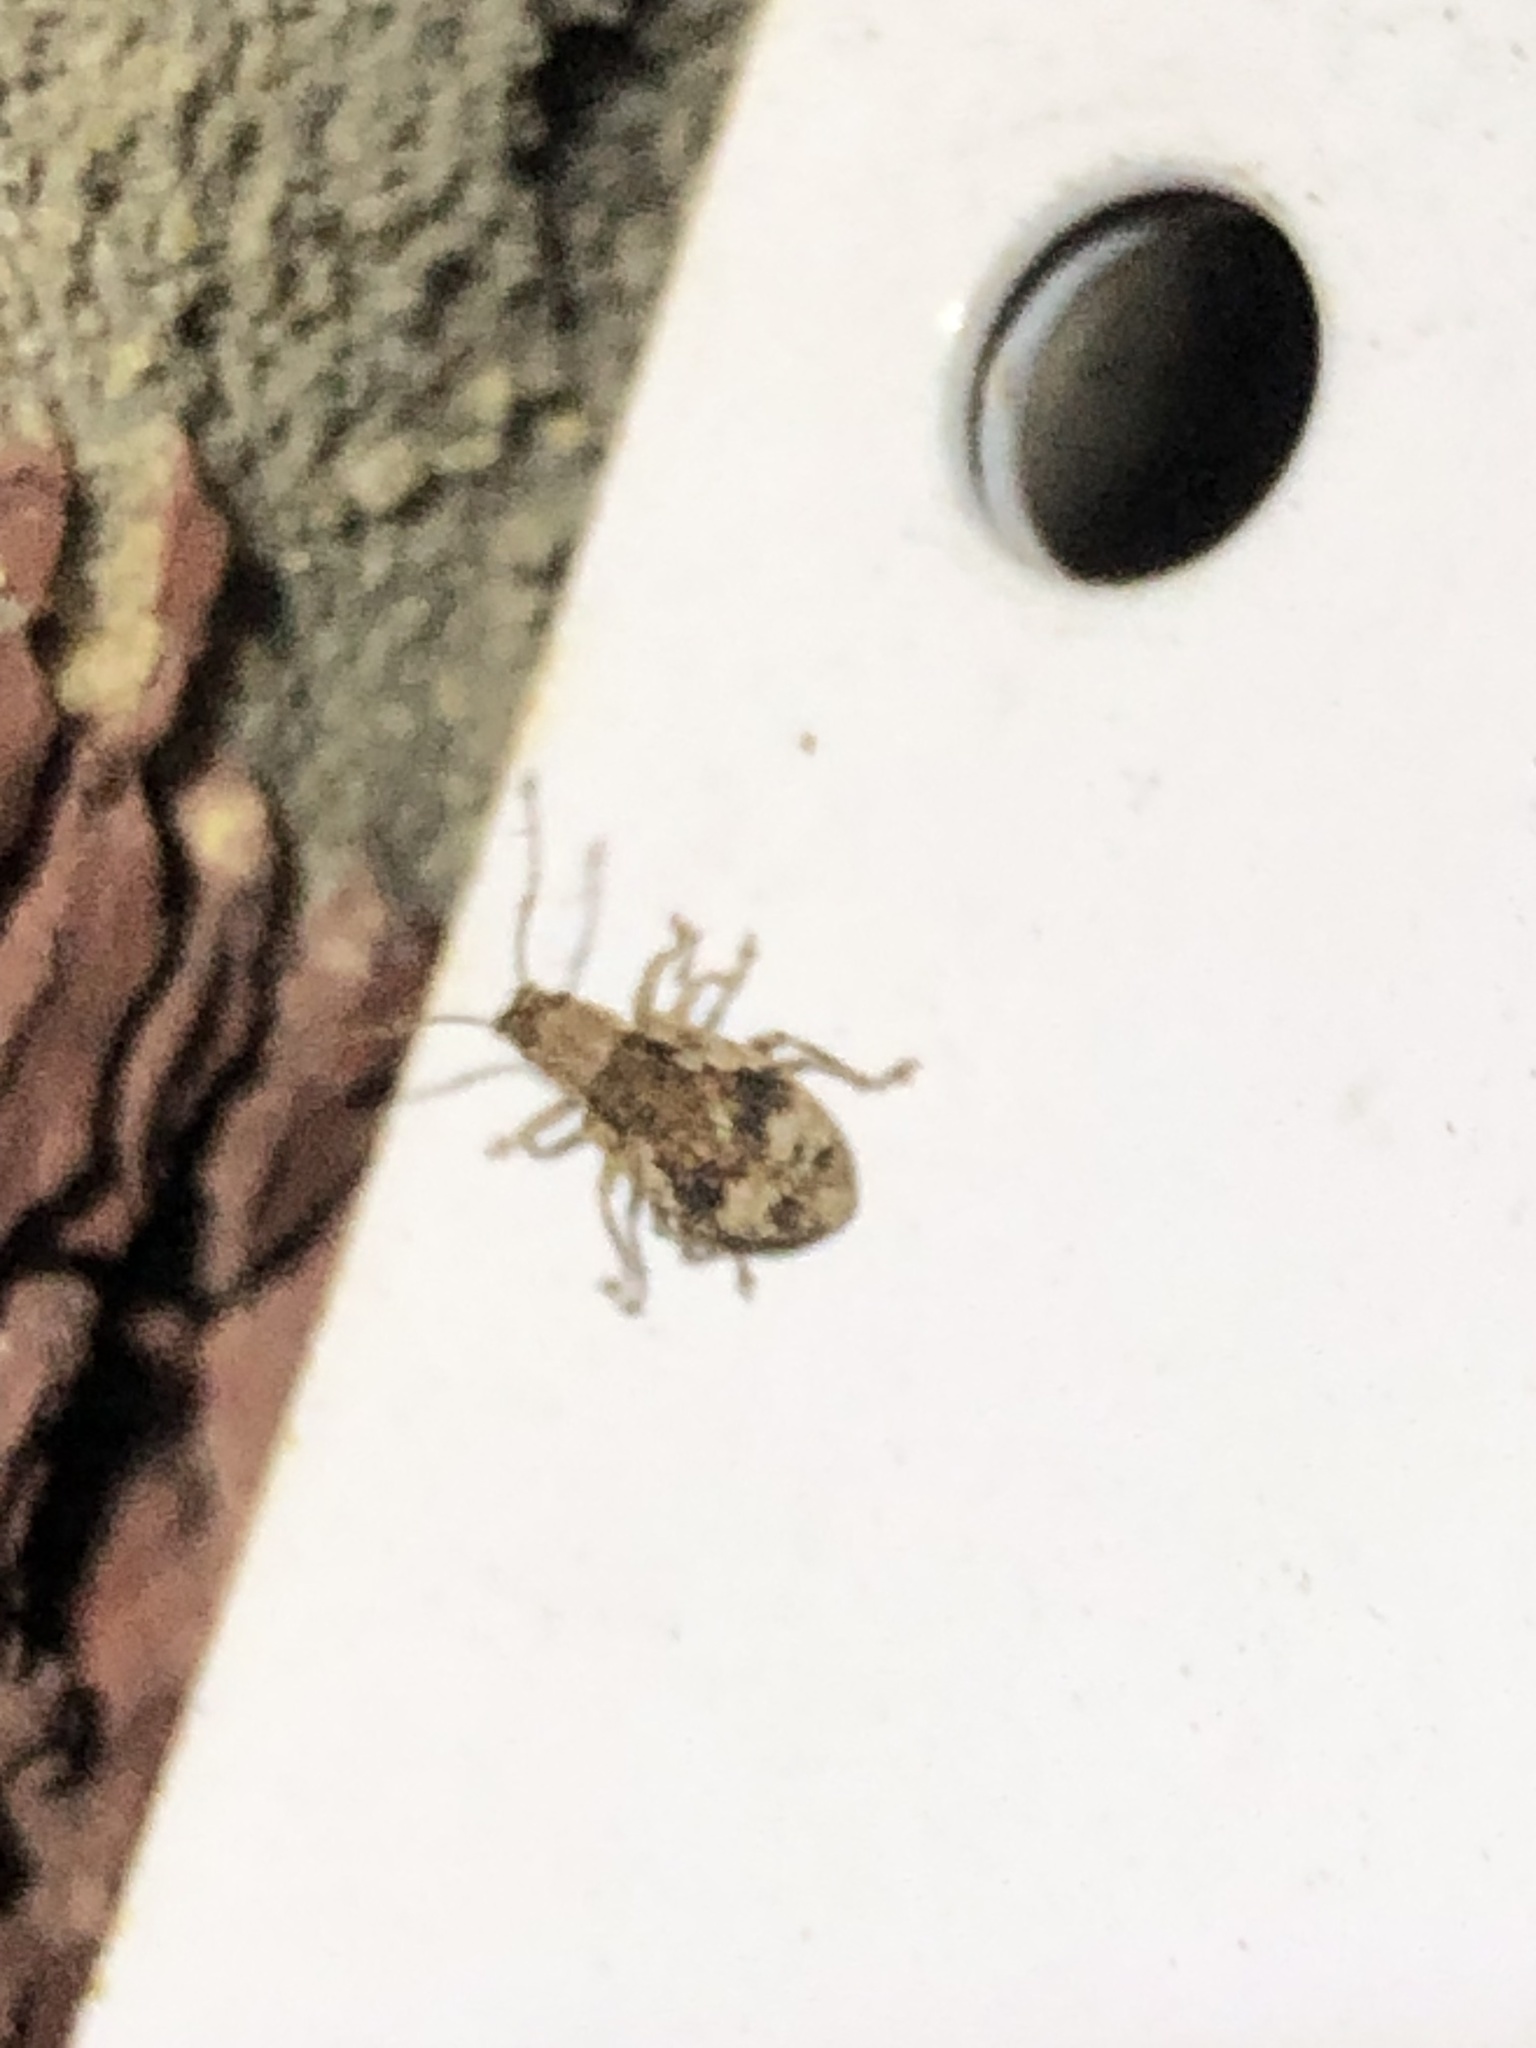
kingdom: Animalia
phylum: Arthropoda
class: Insecta
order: Coleoptera
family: Curculionidae
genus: Pseudoedophrys
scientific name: Pseudoedophrys hilleri
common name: Weevil
